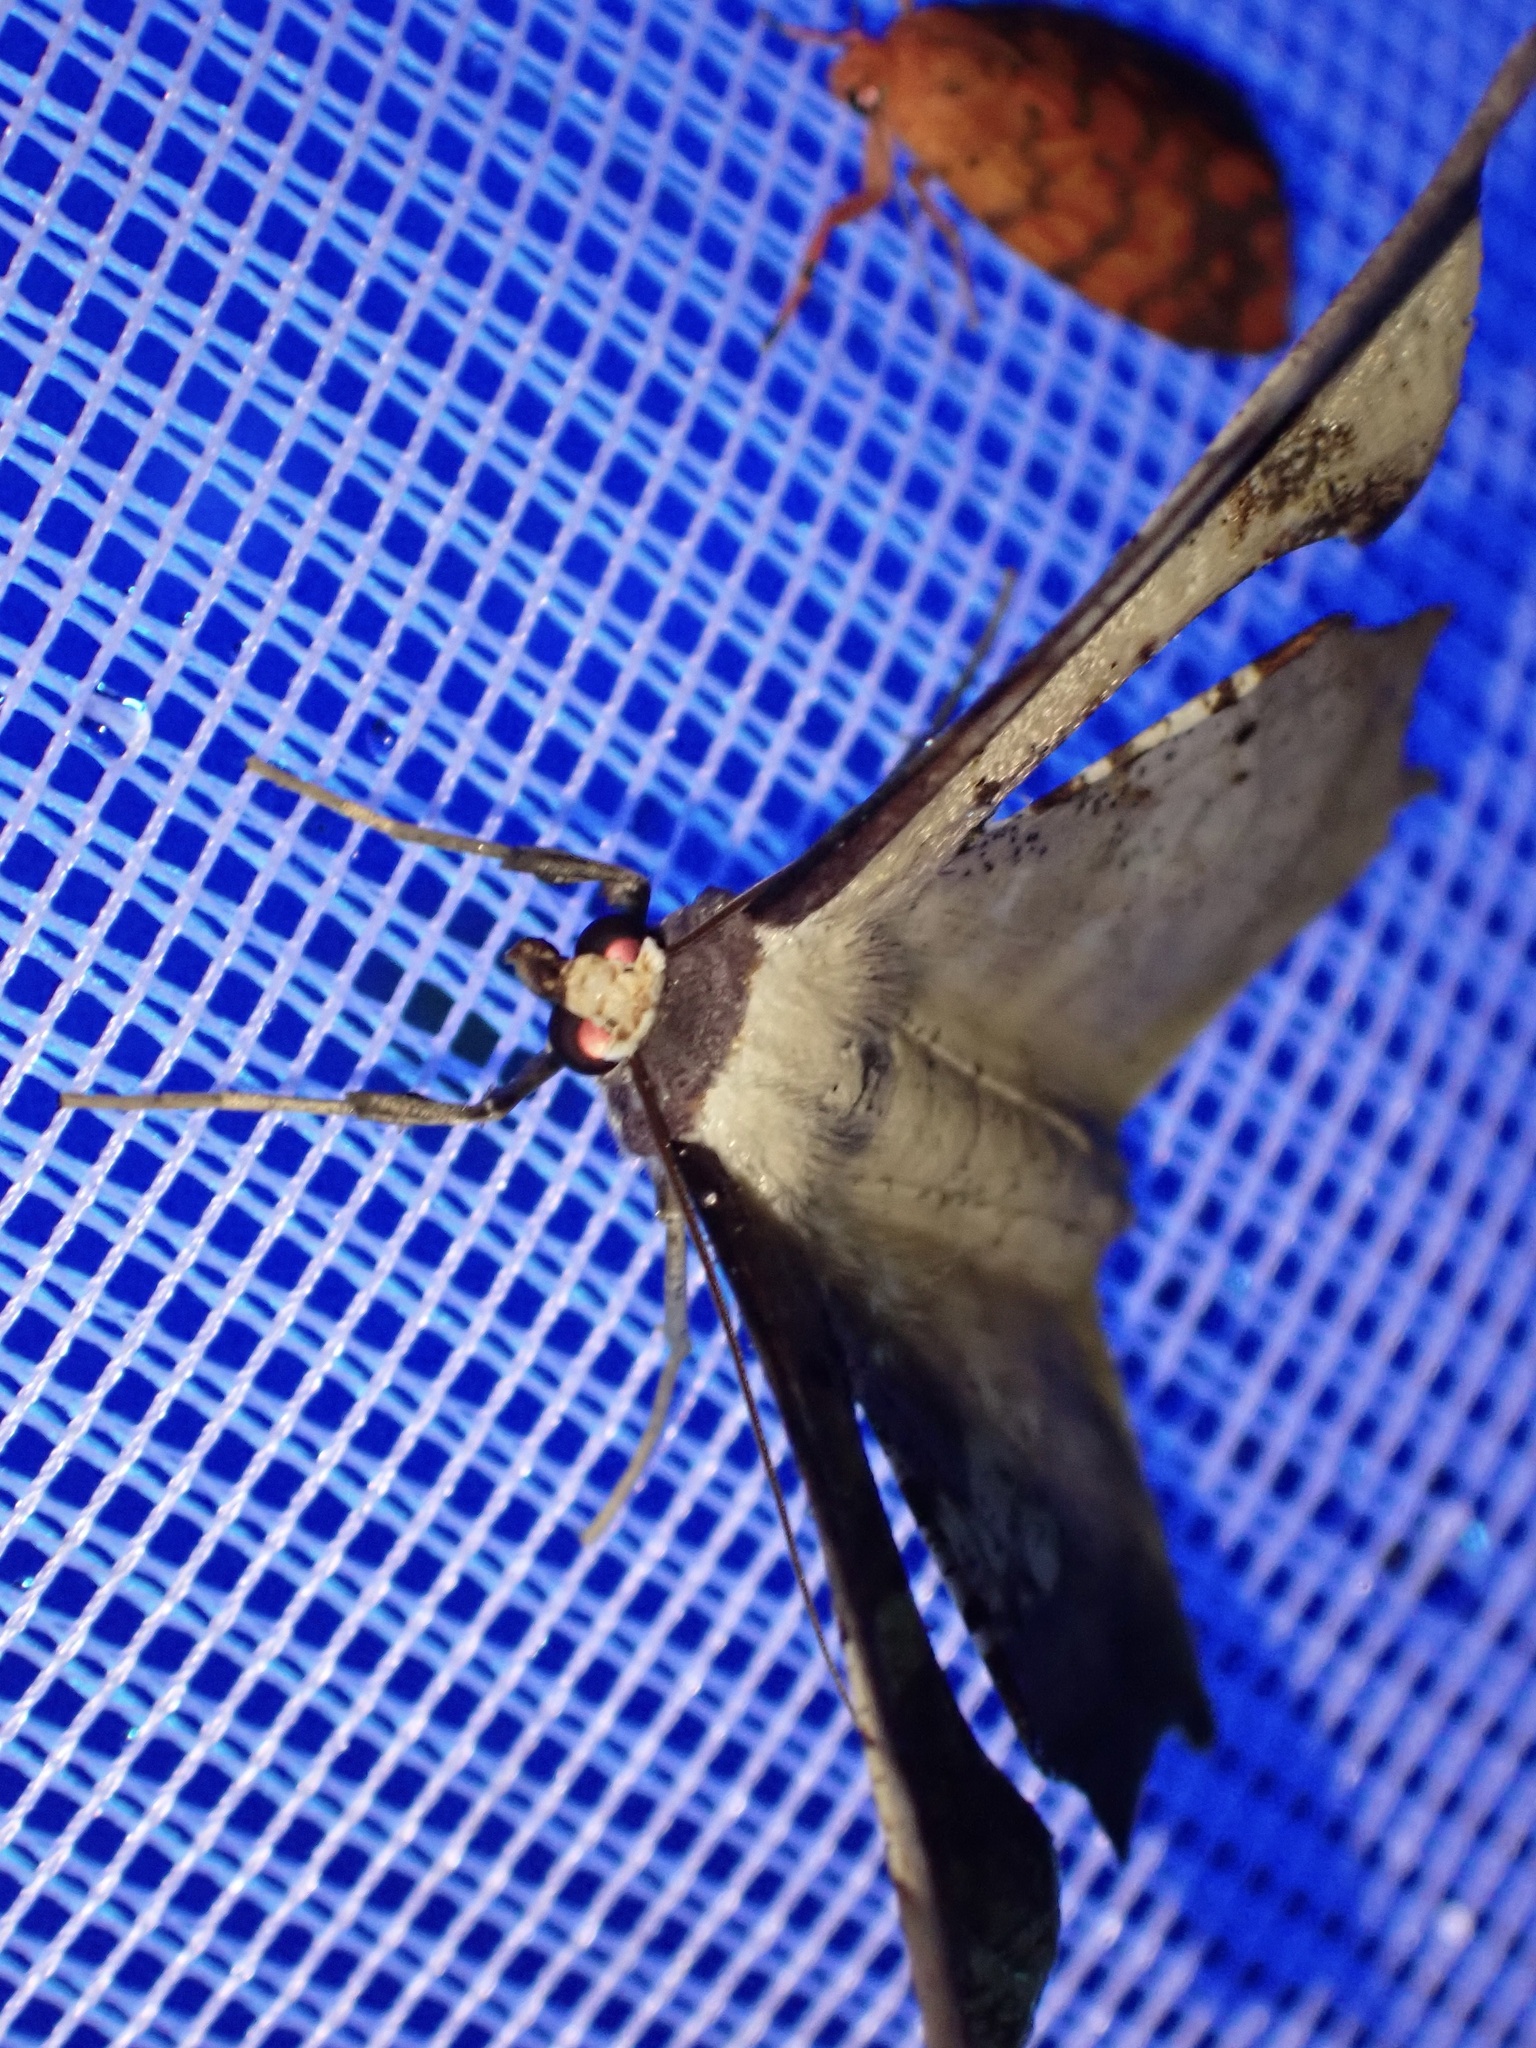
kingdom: Animalia
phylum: Arthropoda
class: Insecta
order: Lepidoptera
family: Geometridae
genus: Xylinophylla
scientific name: Xylinophylla maculata
